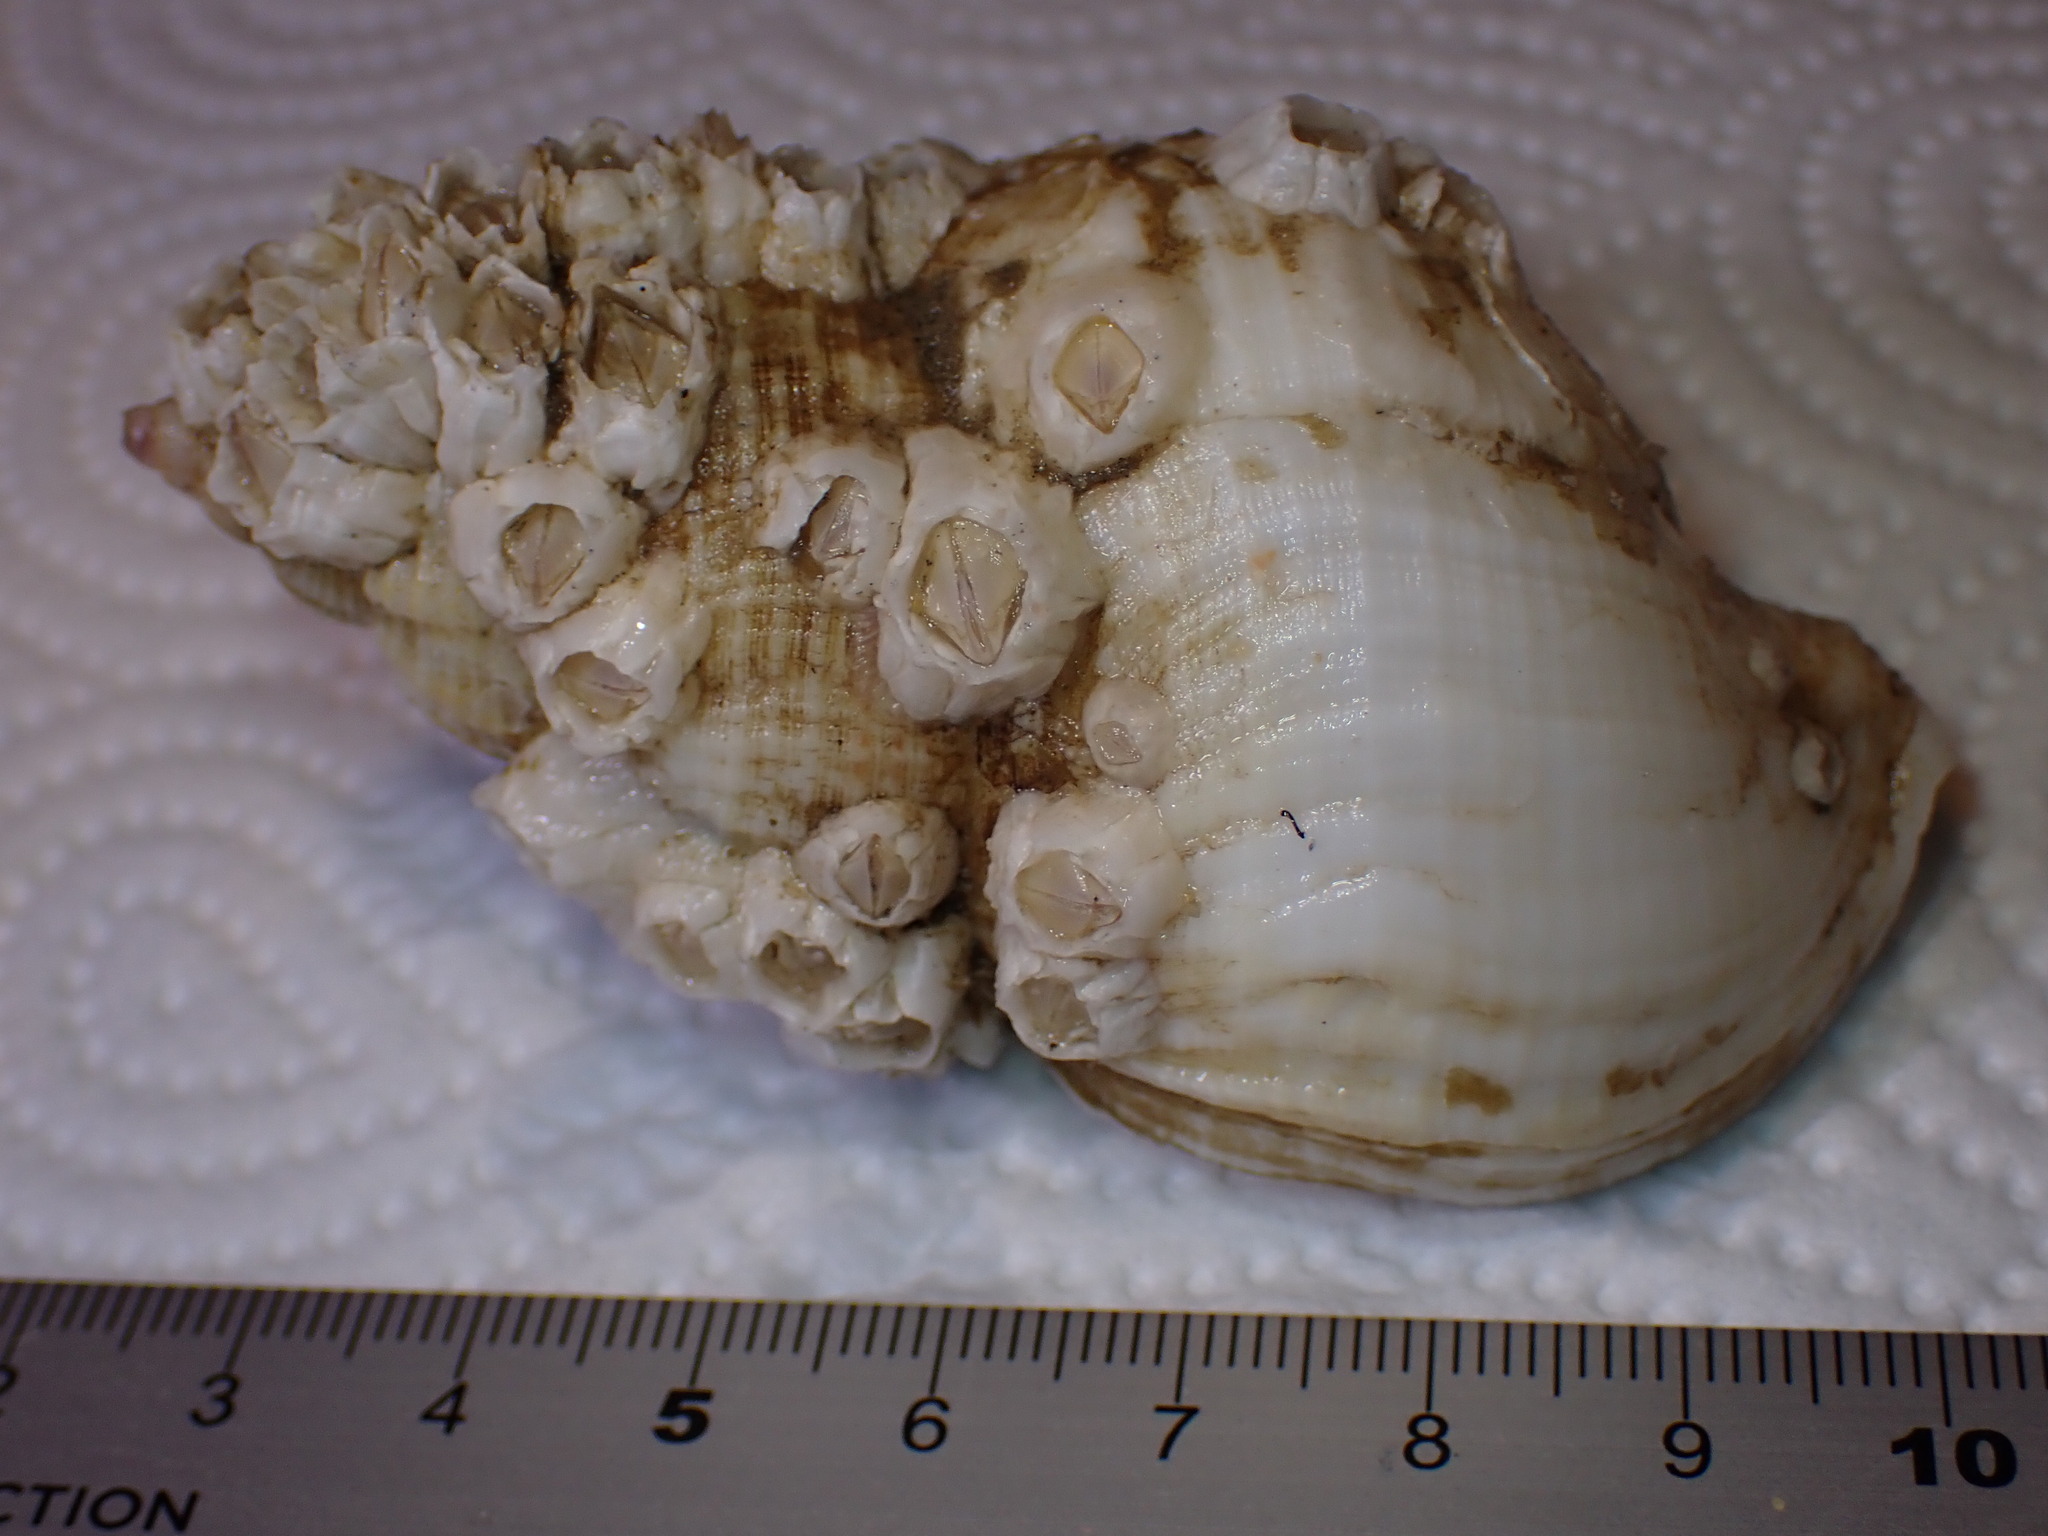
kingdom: Animalia
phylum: Mollusca
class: Gastropoda
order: Neogastropoda
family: Buccinidae
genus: Buccinum
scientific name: Buccinum undatum
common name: Common whelk
